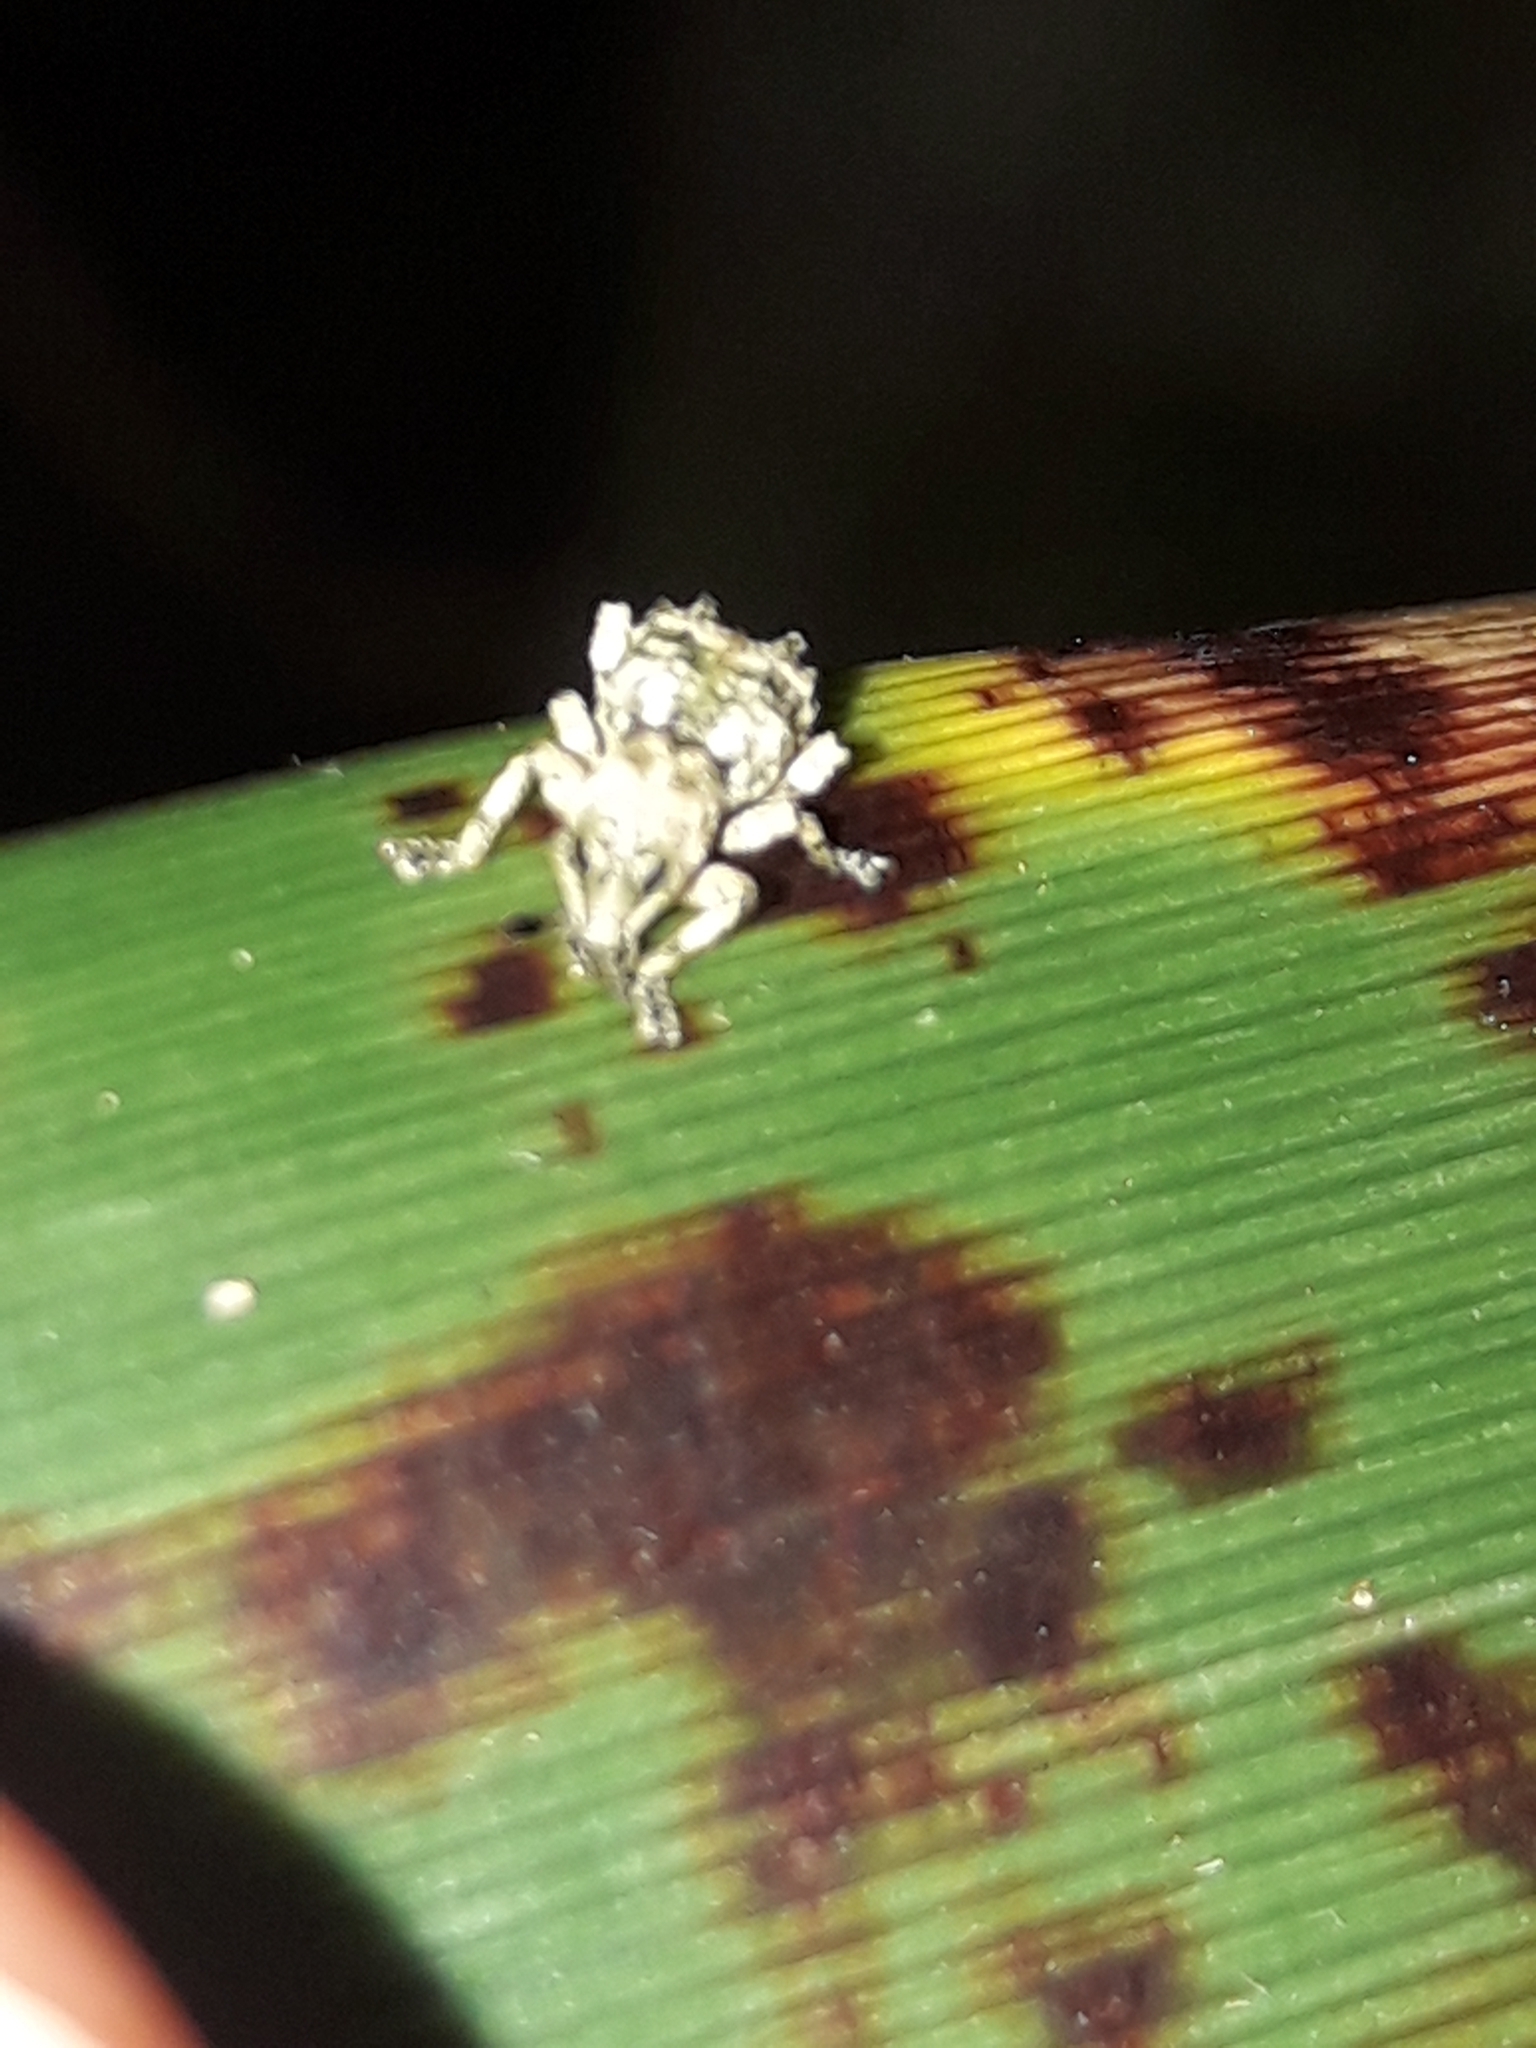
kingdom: Animalia
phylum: Arthropoda
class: Insecta
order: Coleoptera
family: Curculionidae
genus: Brachyolus
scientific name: Brachyolus punctatus
